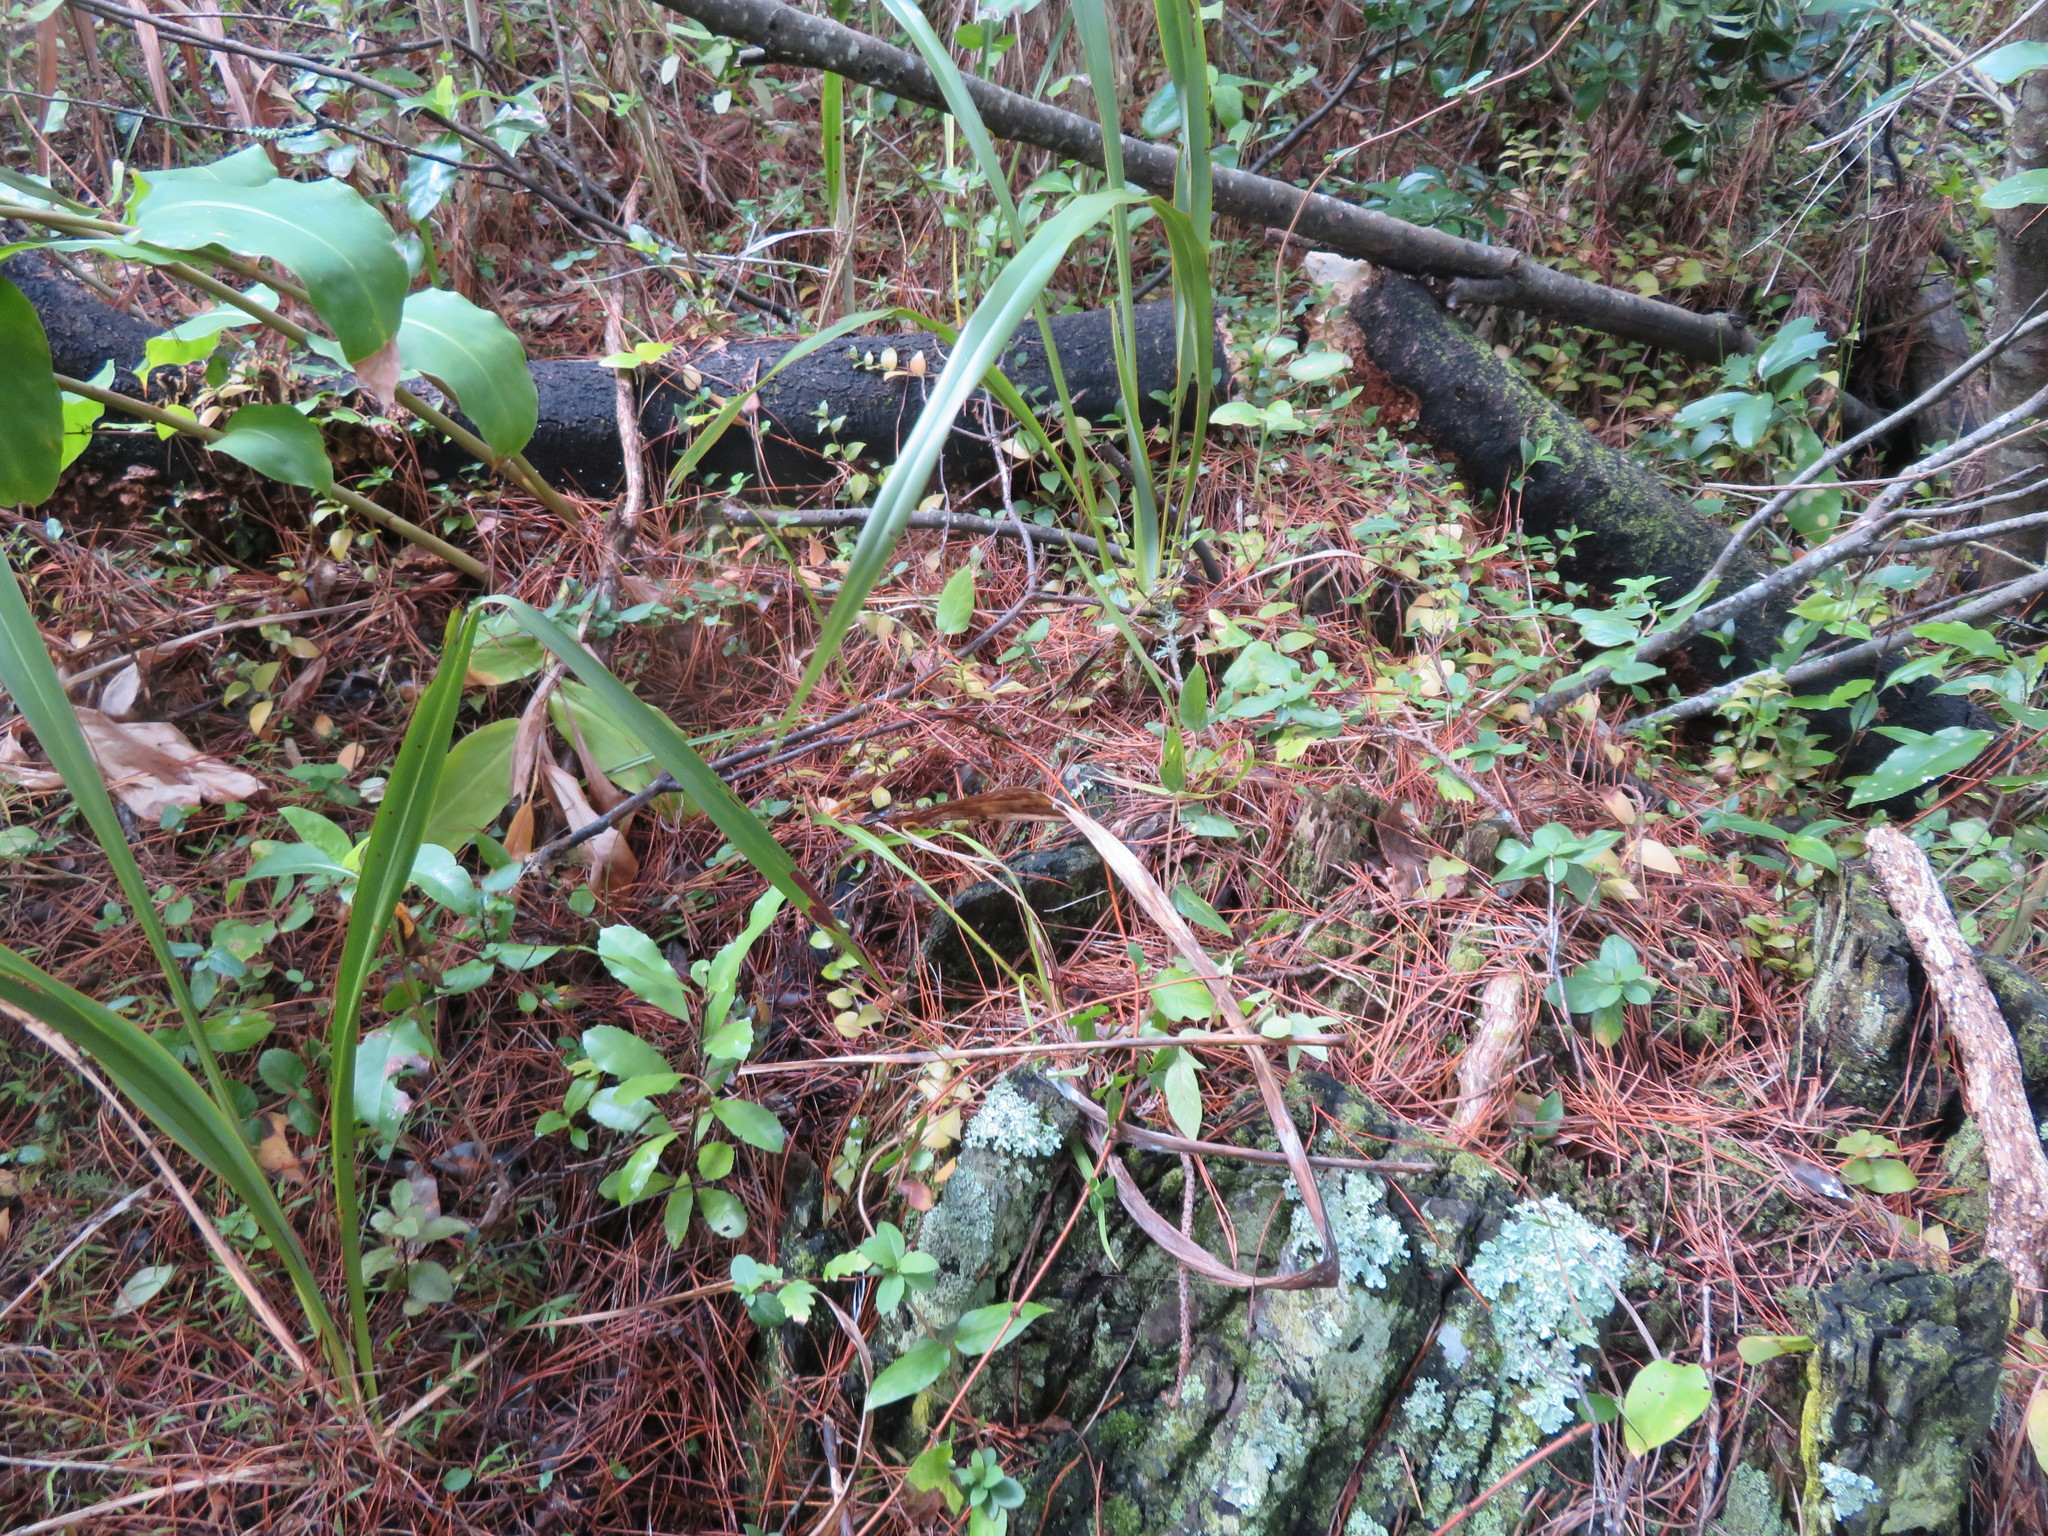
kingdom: Plantae
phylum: Tracheophyta
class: Magnoliopsida
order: Laurales
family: Monimiaceae
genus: Hedycarya
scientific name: Hedycarya arborea
